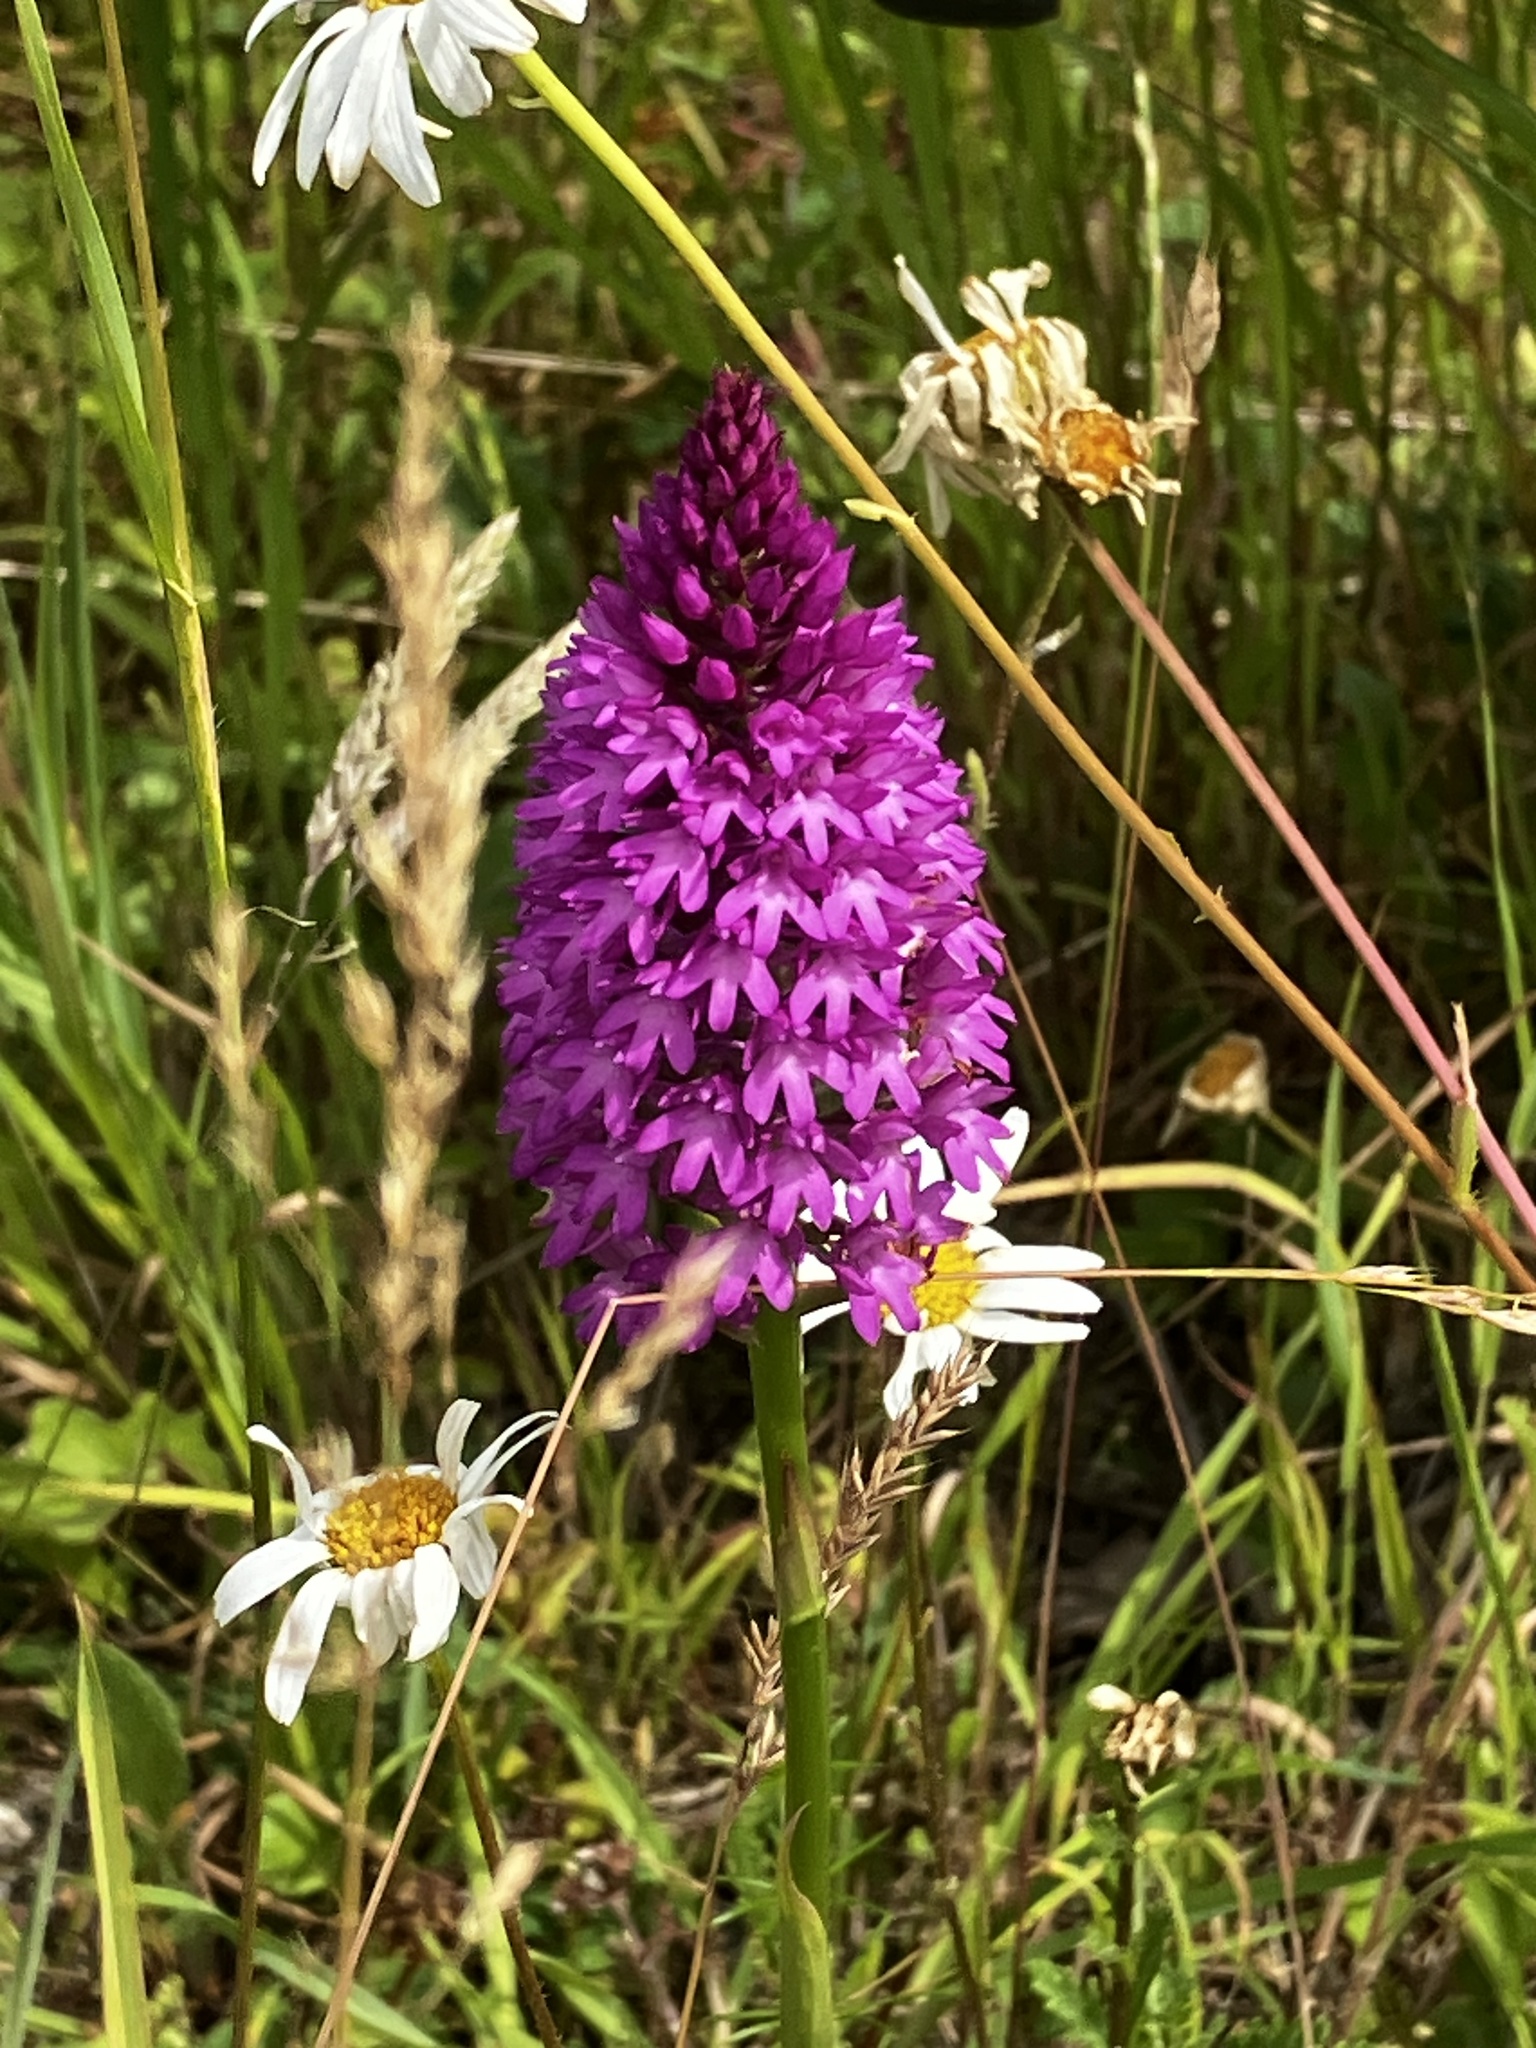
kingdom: Plantae
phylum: Tracheophyta
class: Liliopsida
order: Asparagales
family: Orchidaceae
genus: Anacamptis
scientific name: Anacamptis pyramidalis
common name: Pyramidal orchid
